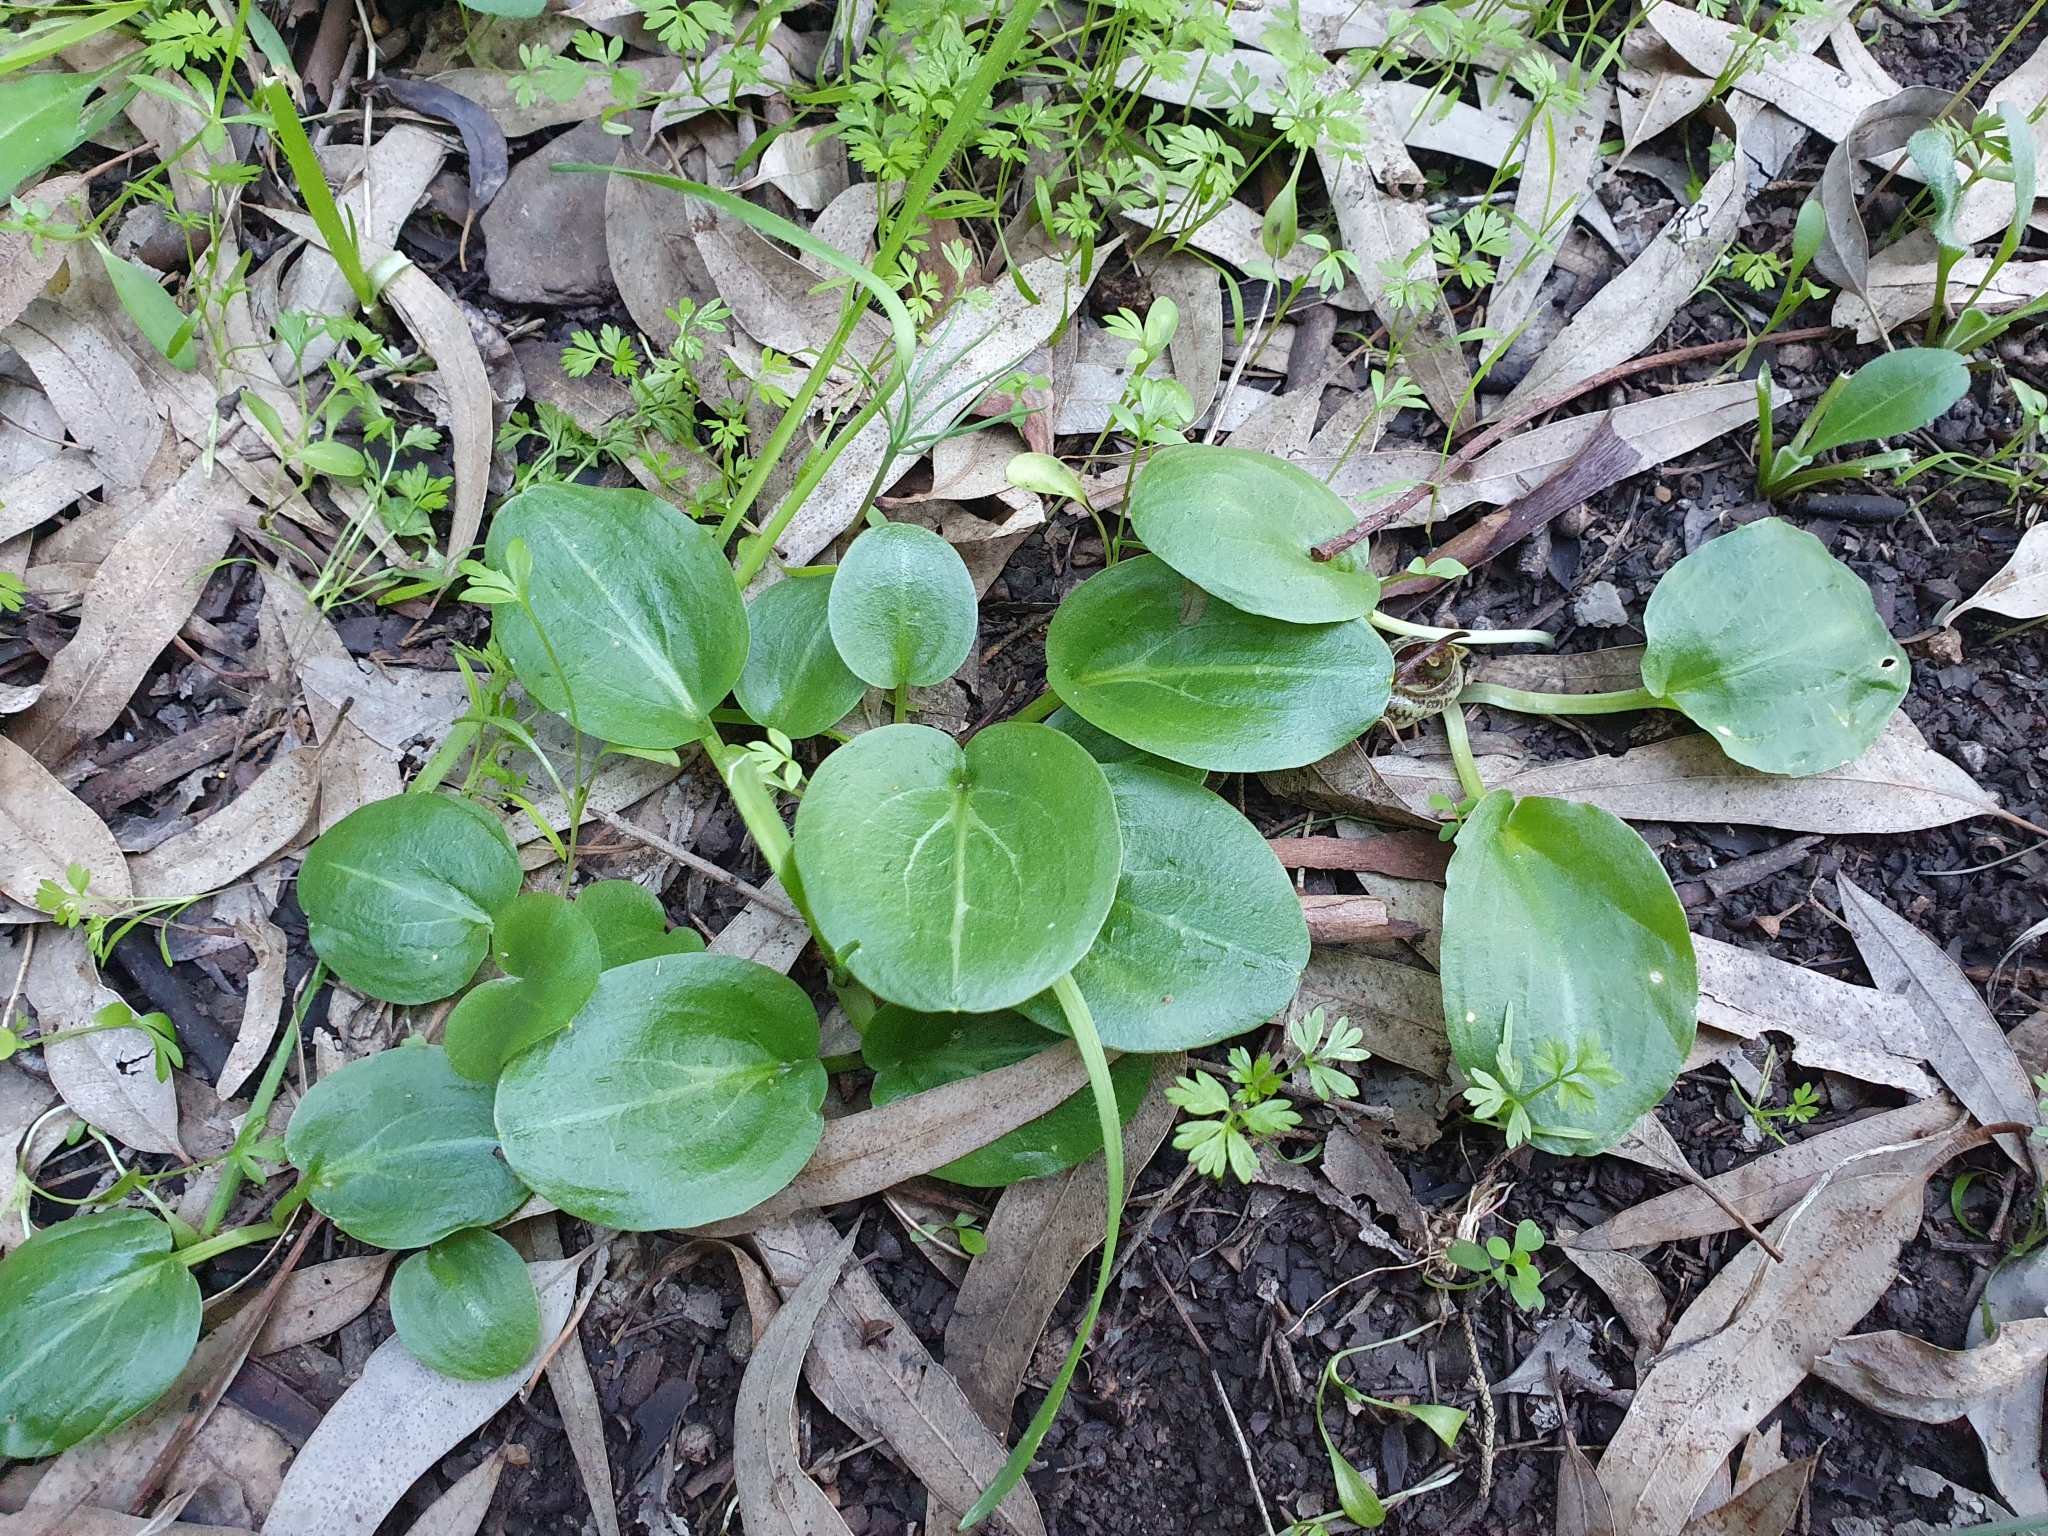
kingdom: Plantae
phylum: Tracheophyta
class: Liliopsida
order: Alismatales
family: Araceae
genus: Ambrosina
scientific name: Ambrosina bassii
